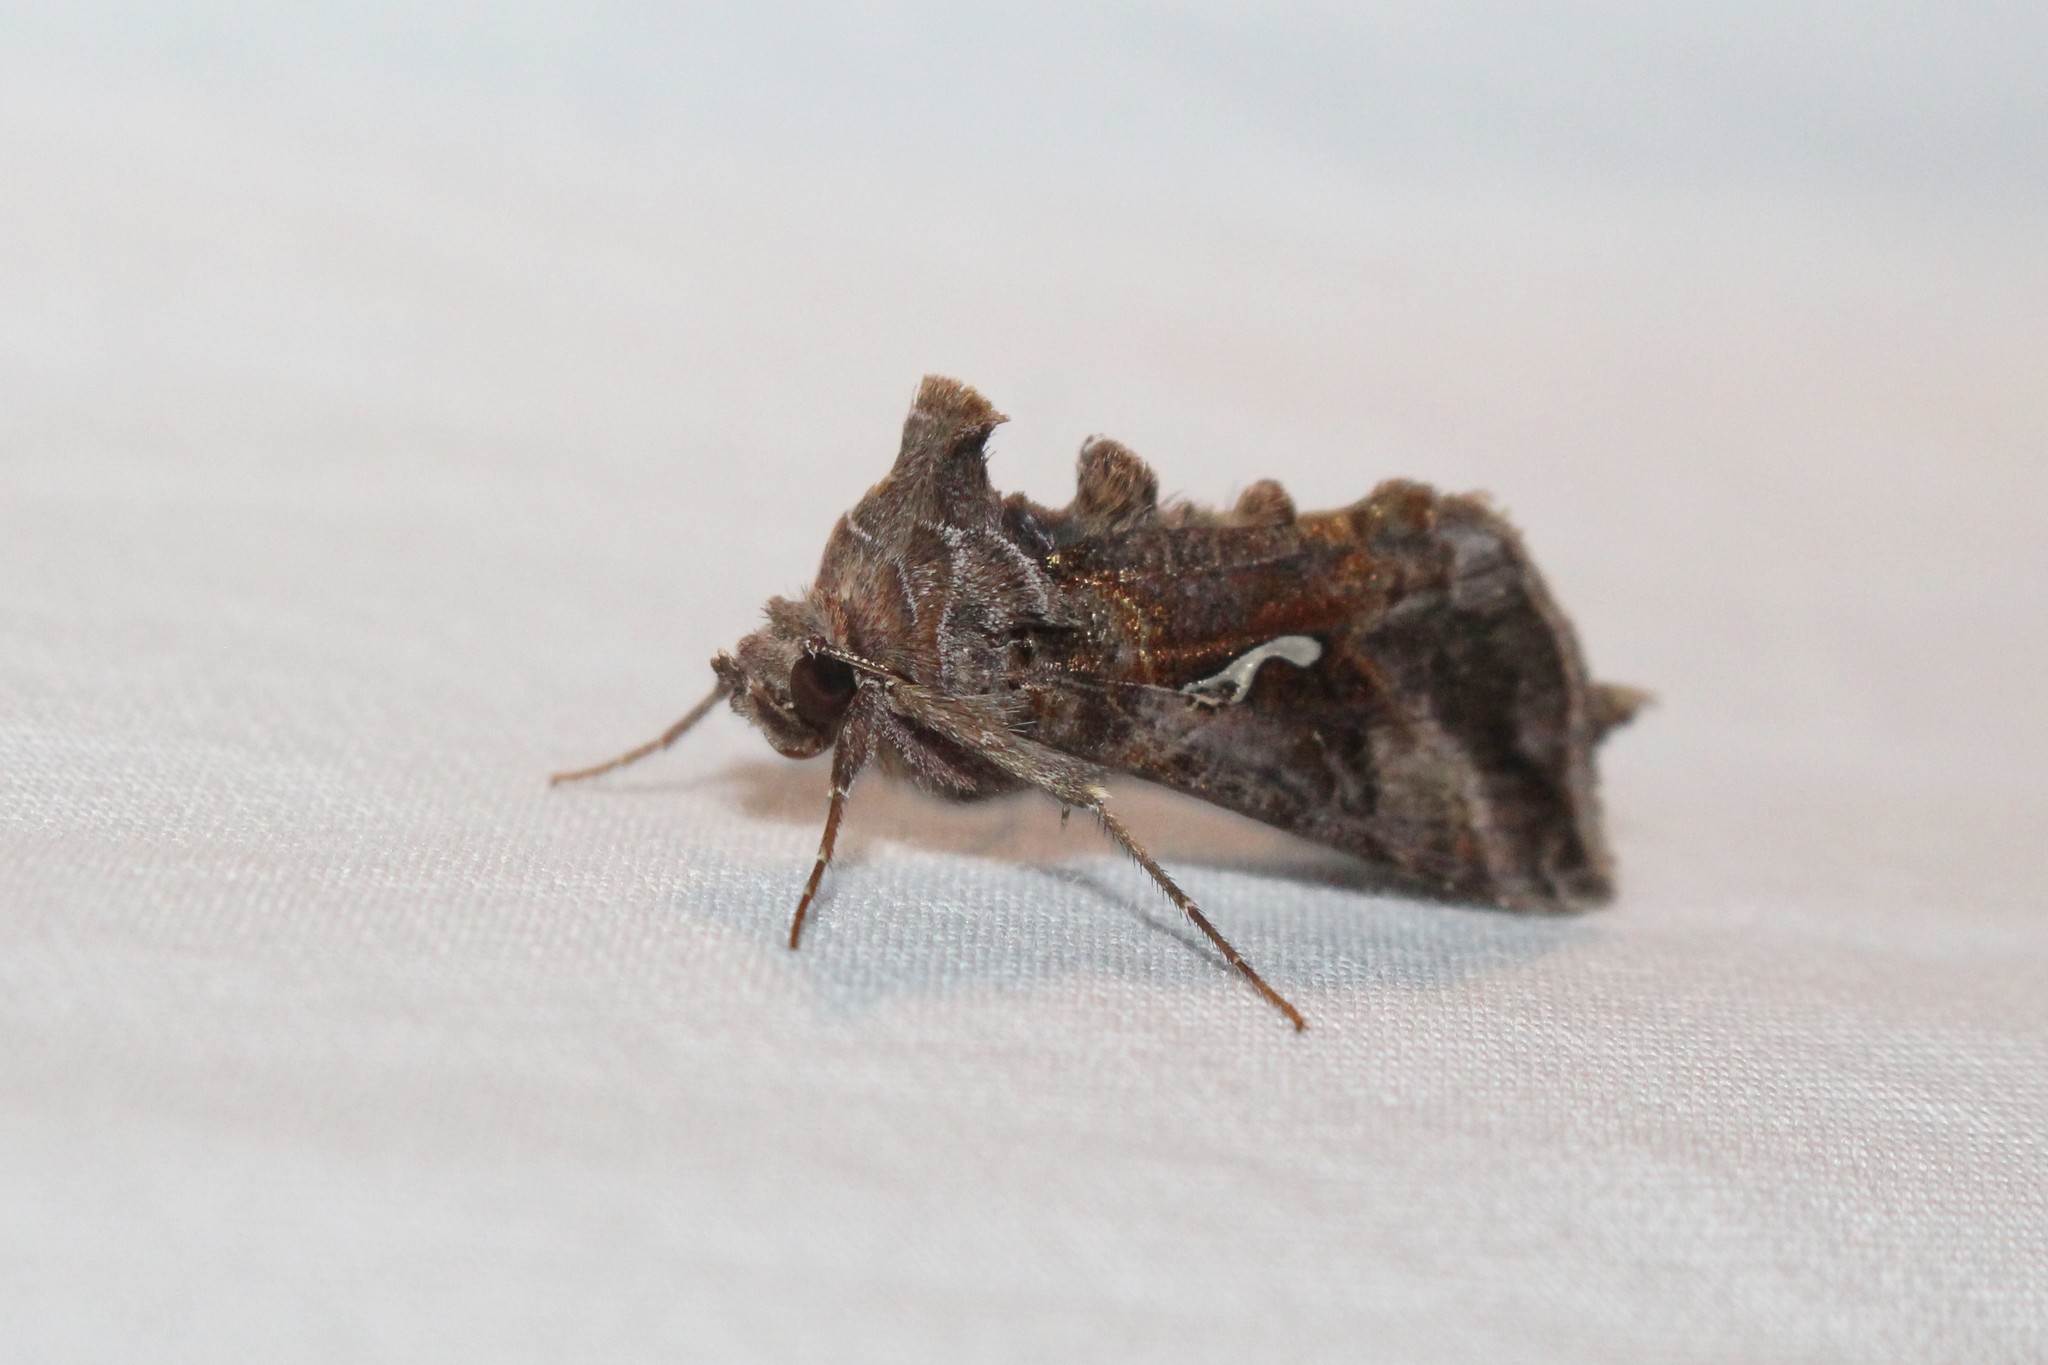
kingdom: Animalia
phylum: Arthropoda
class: Insecta
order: Lepidoptera
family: Noctuidae
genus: Autographa
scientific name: Autographa precationis
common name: Common looper moth
